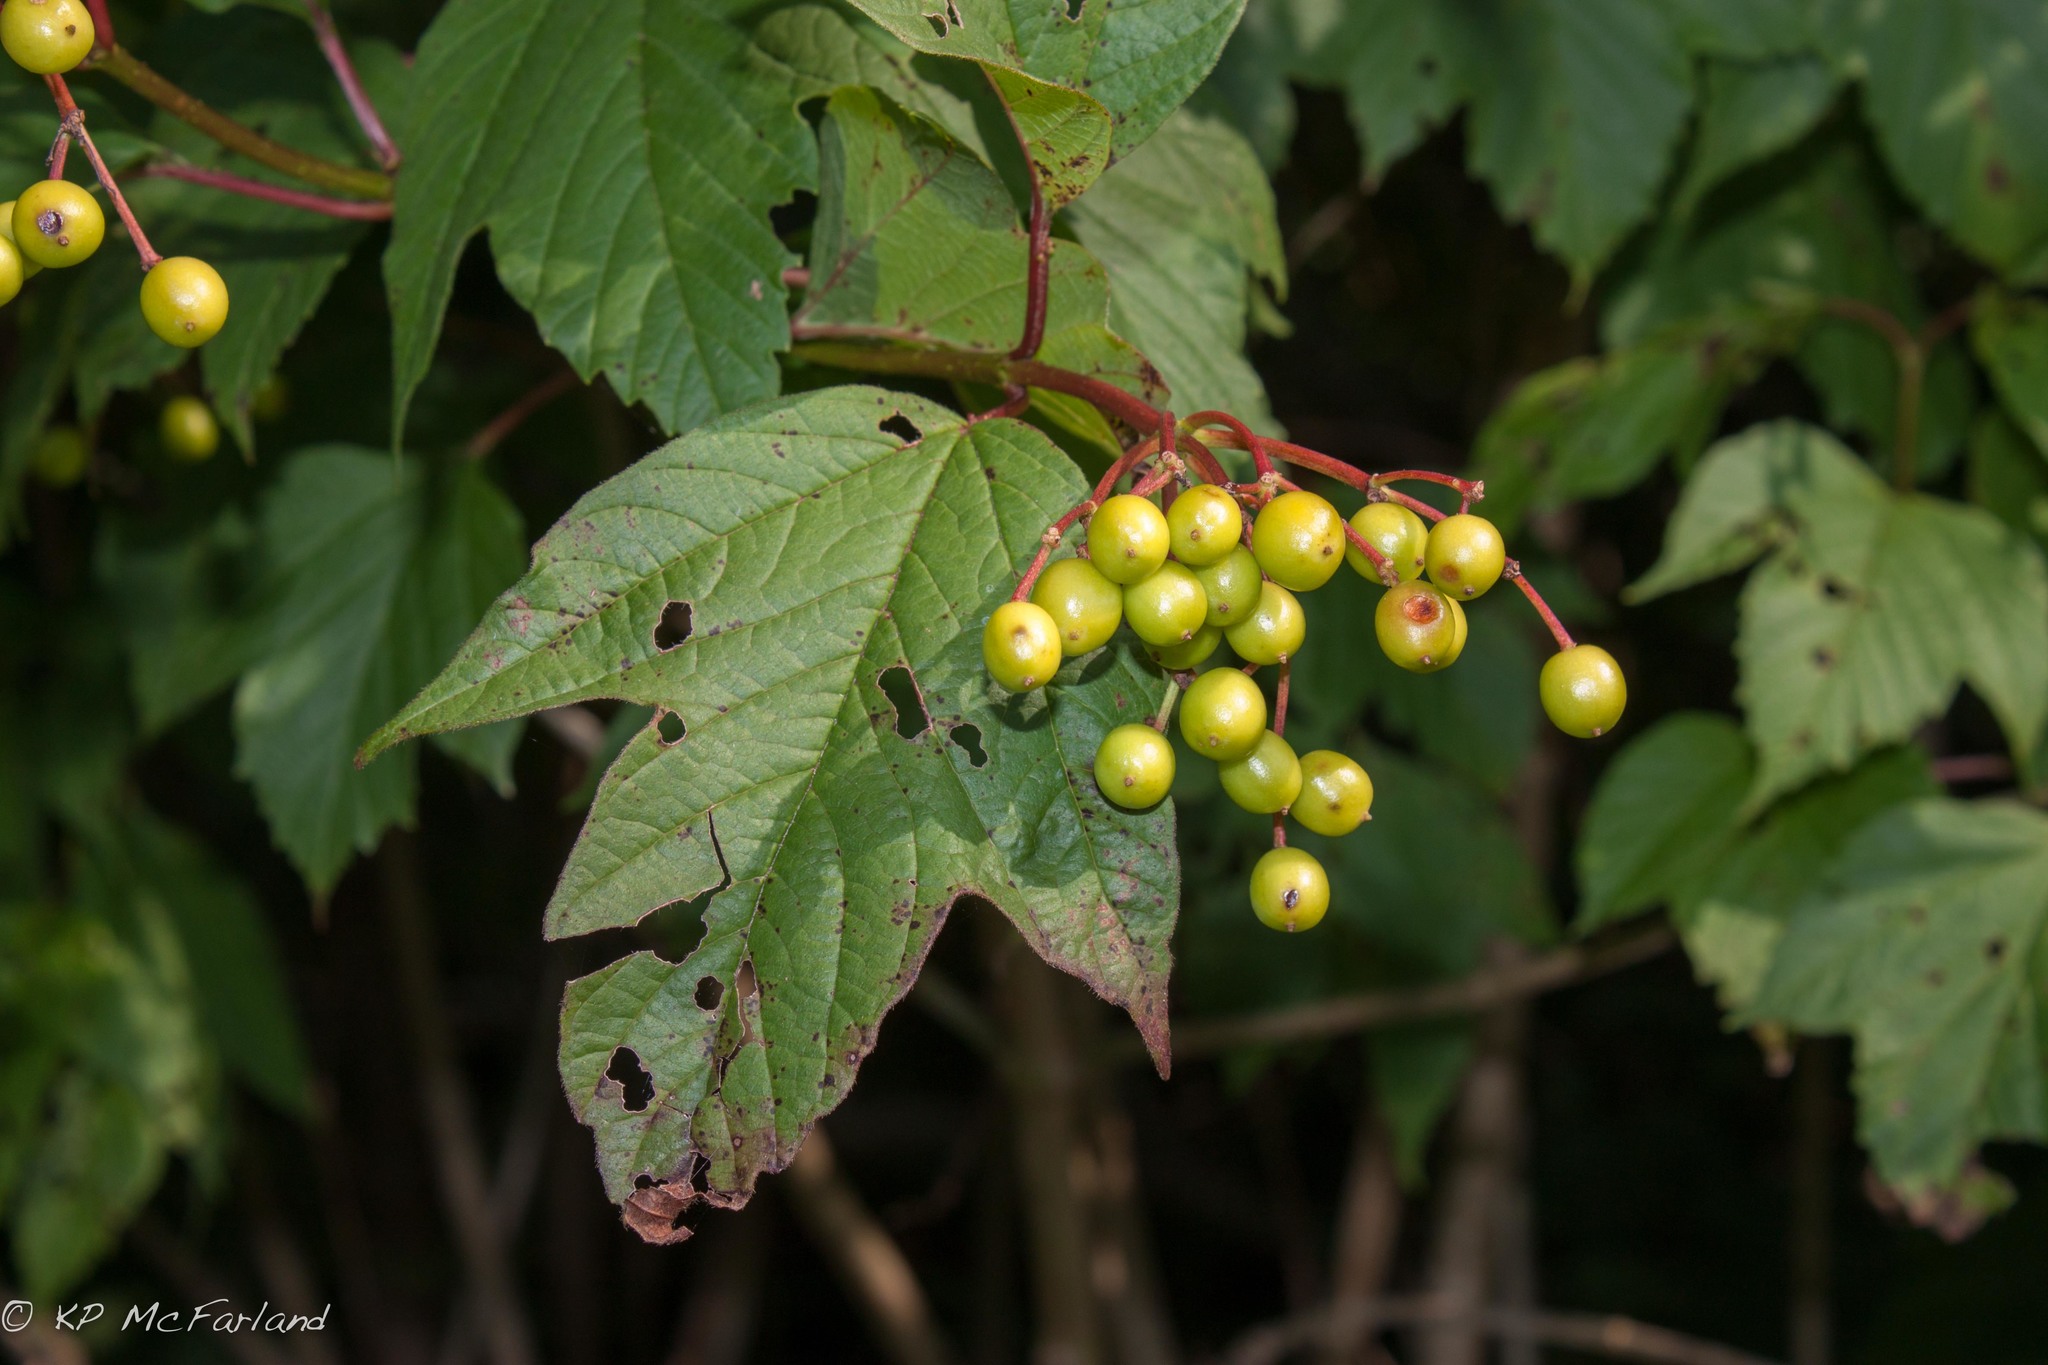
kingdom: Plantae
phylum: Tracheophyta
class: Magnoliopsida
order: Dipsacales
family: Viburnaceae
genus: Viburnum
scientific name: Viburnum opulus
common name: Guelder-rose
